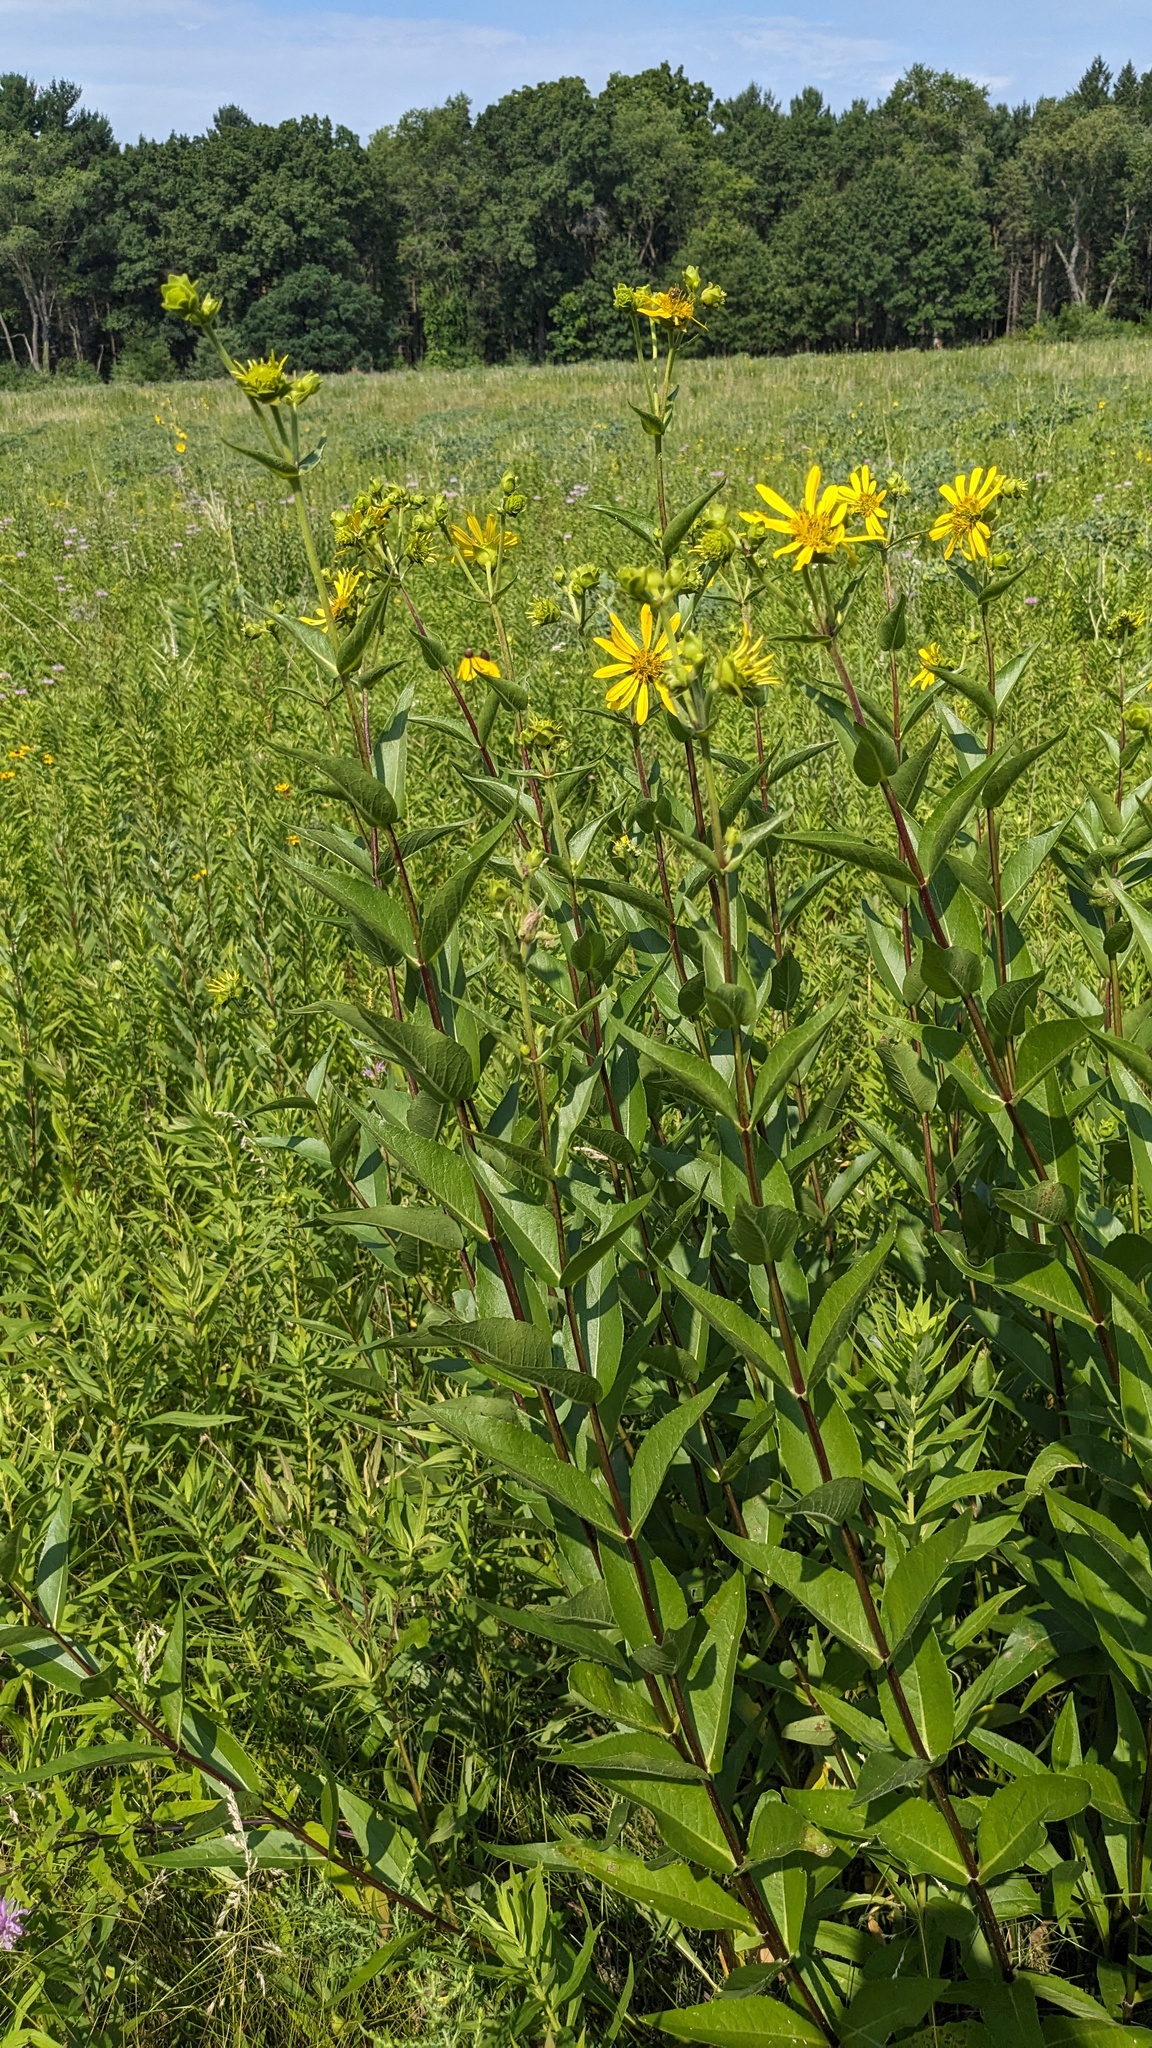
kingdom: Plantae
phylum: Tracheophyta
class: Magnoliopsida
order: Asterales
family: Asteraceae
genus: Silphium
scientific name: Silphium integrifolium
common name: Whole-leaf rosinweed
